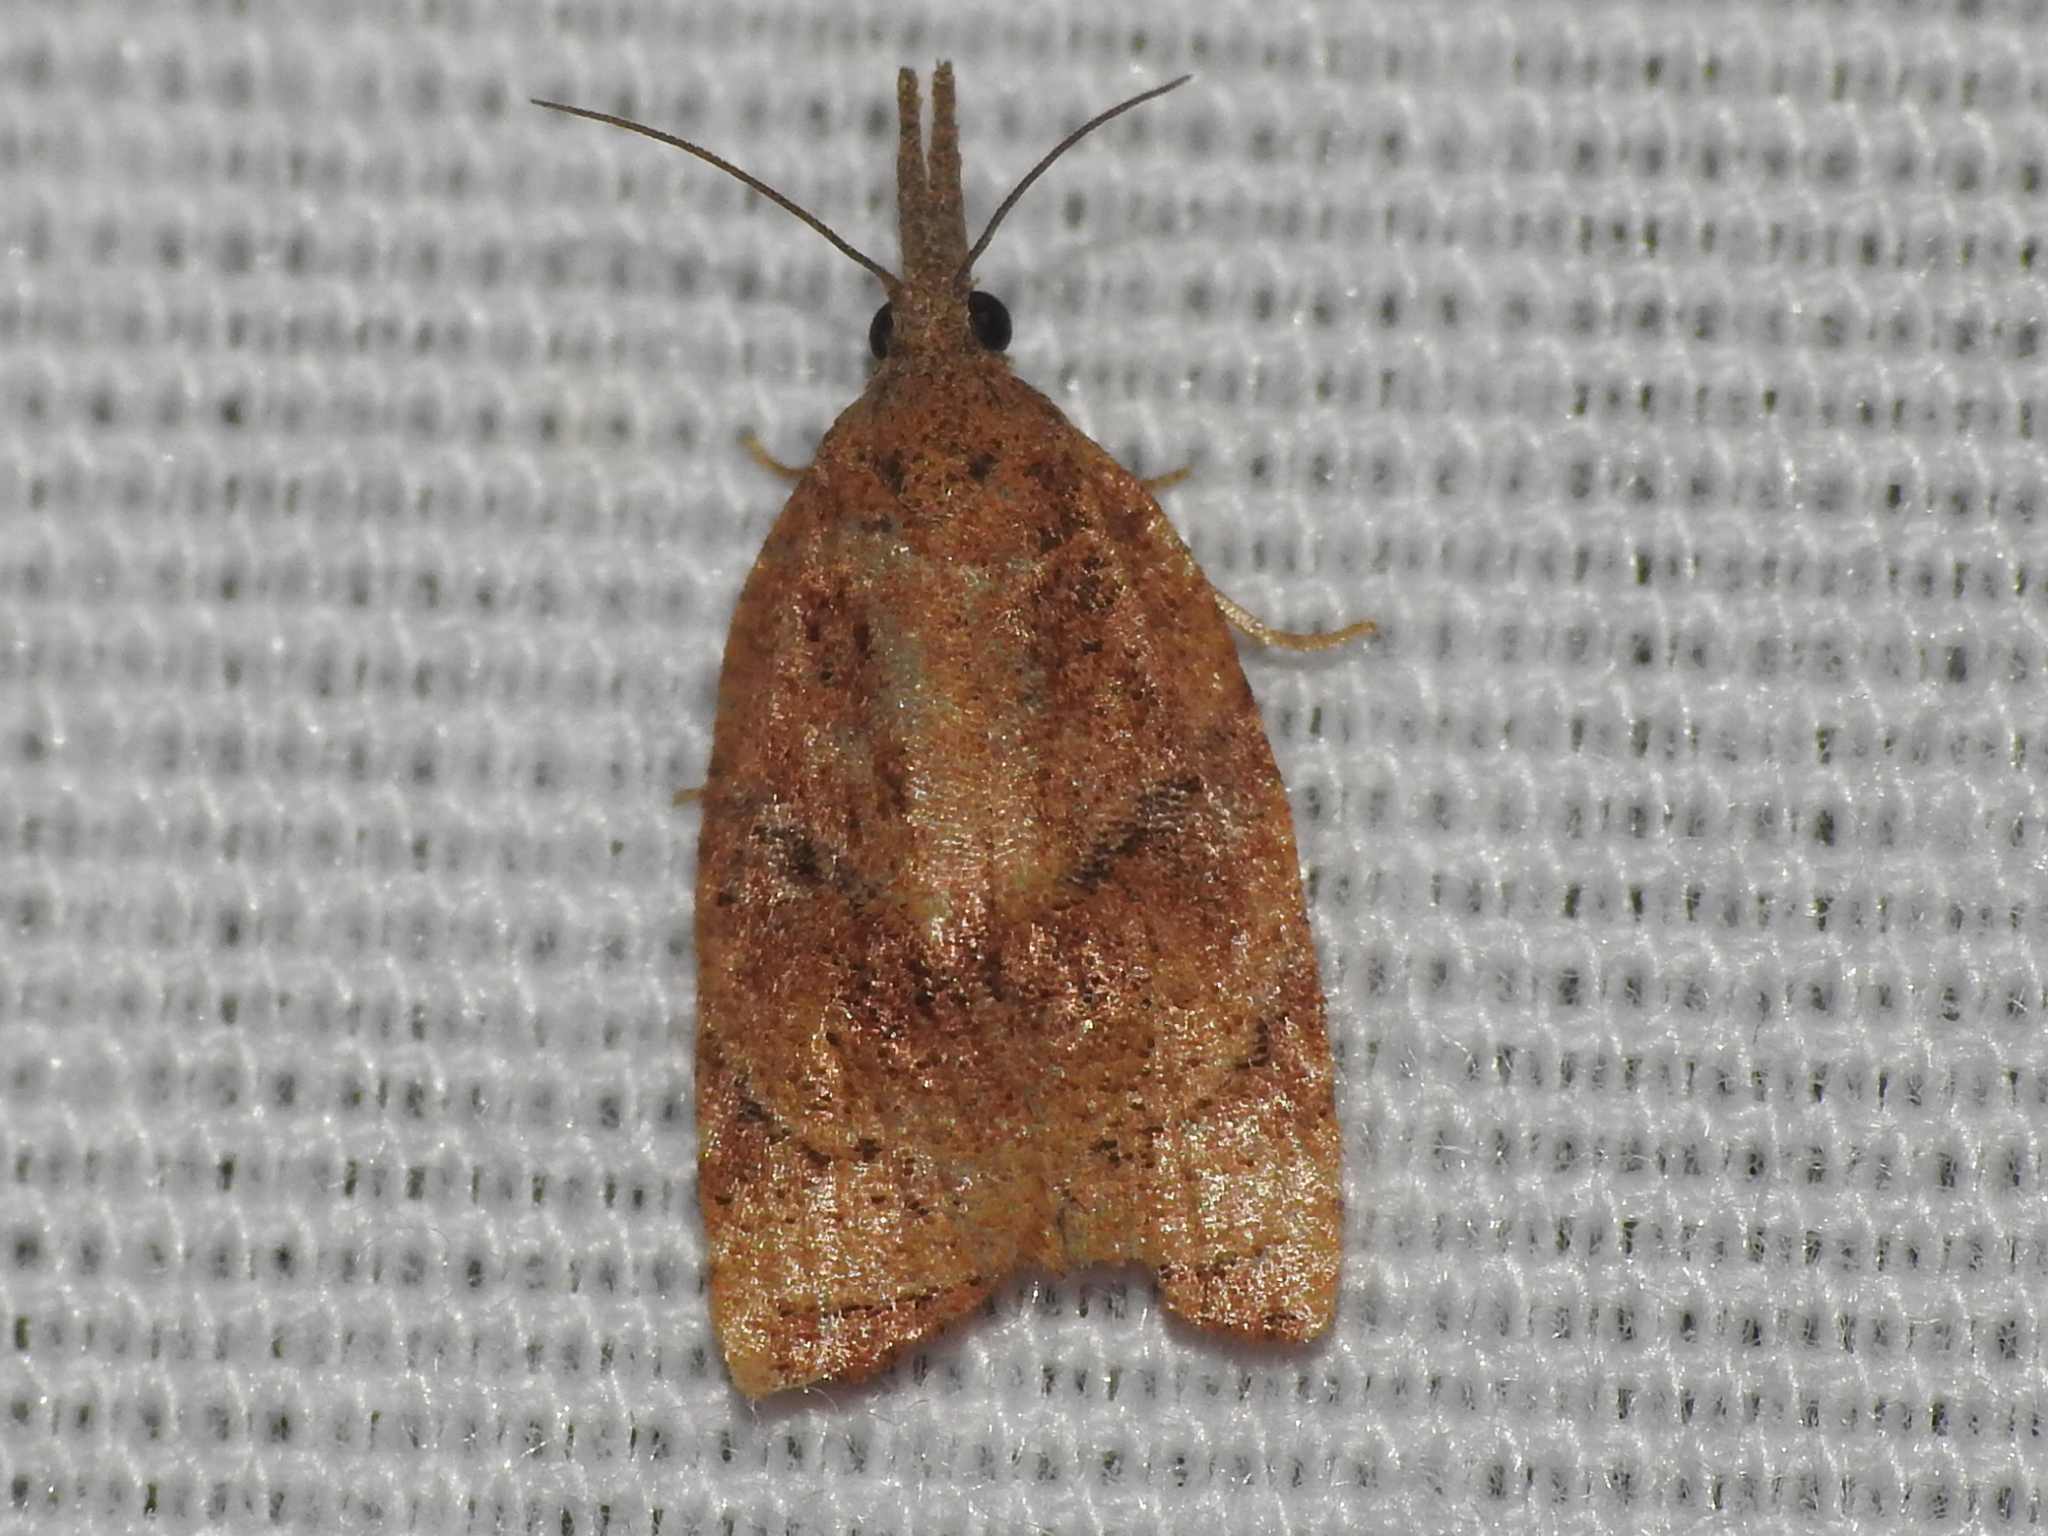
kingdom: Animalia
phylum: Arthropoda
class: Insecta
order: Lepidoptera
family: Tortricidae
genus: Platynota
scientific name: Platynota rostrana
